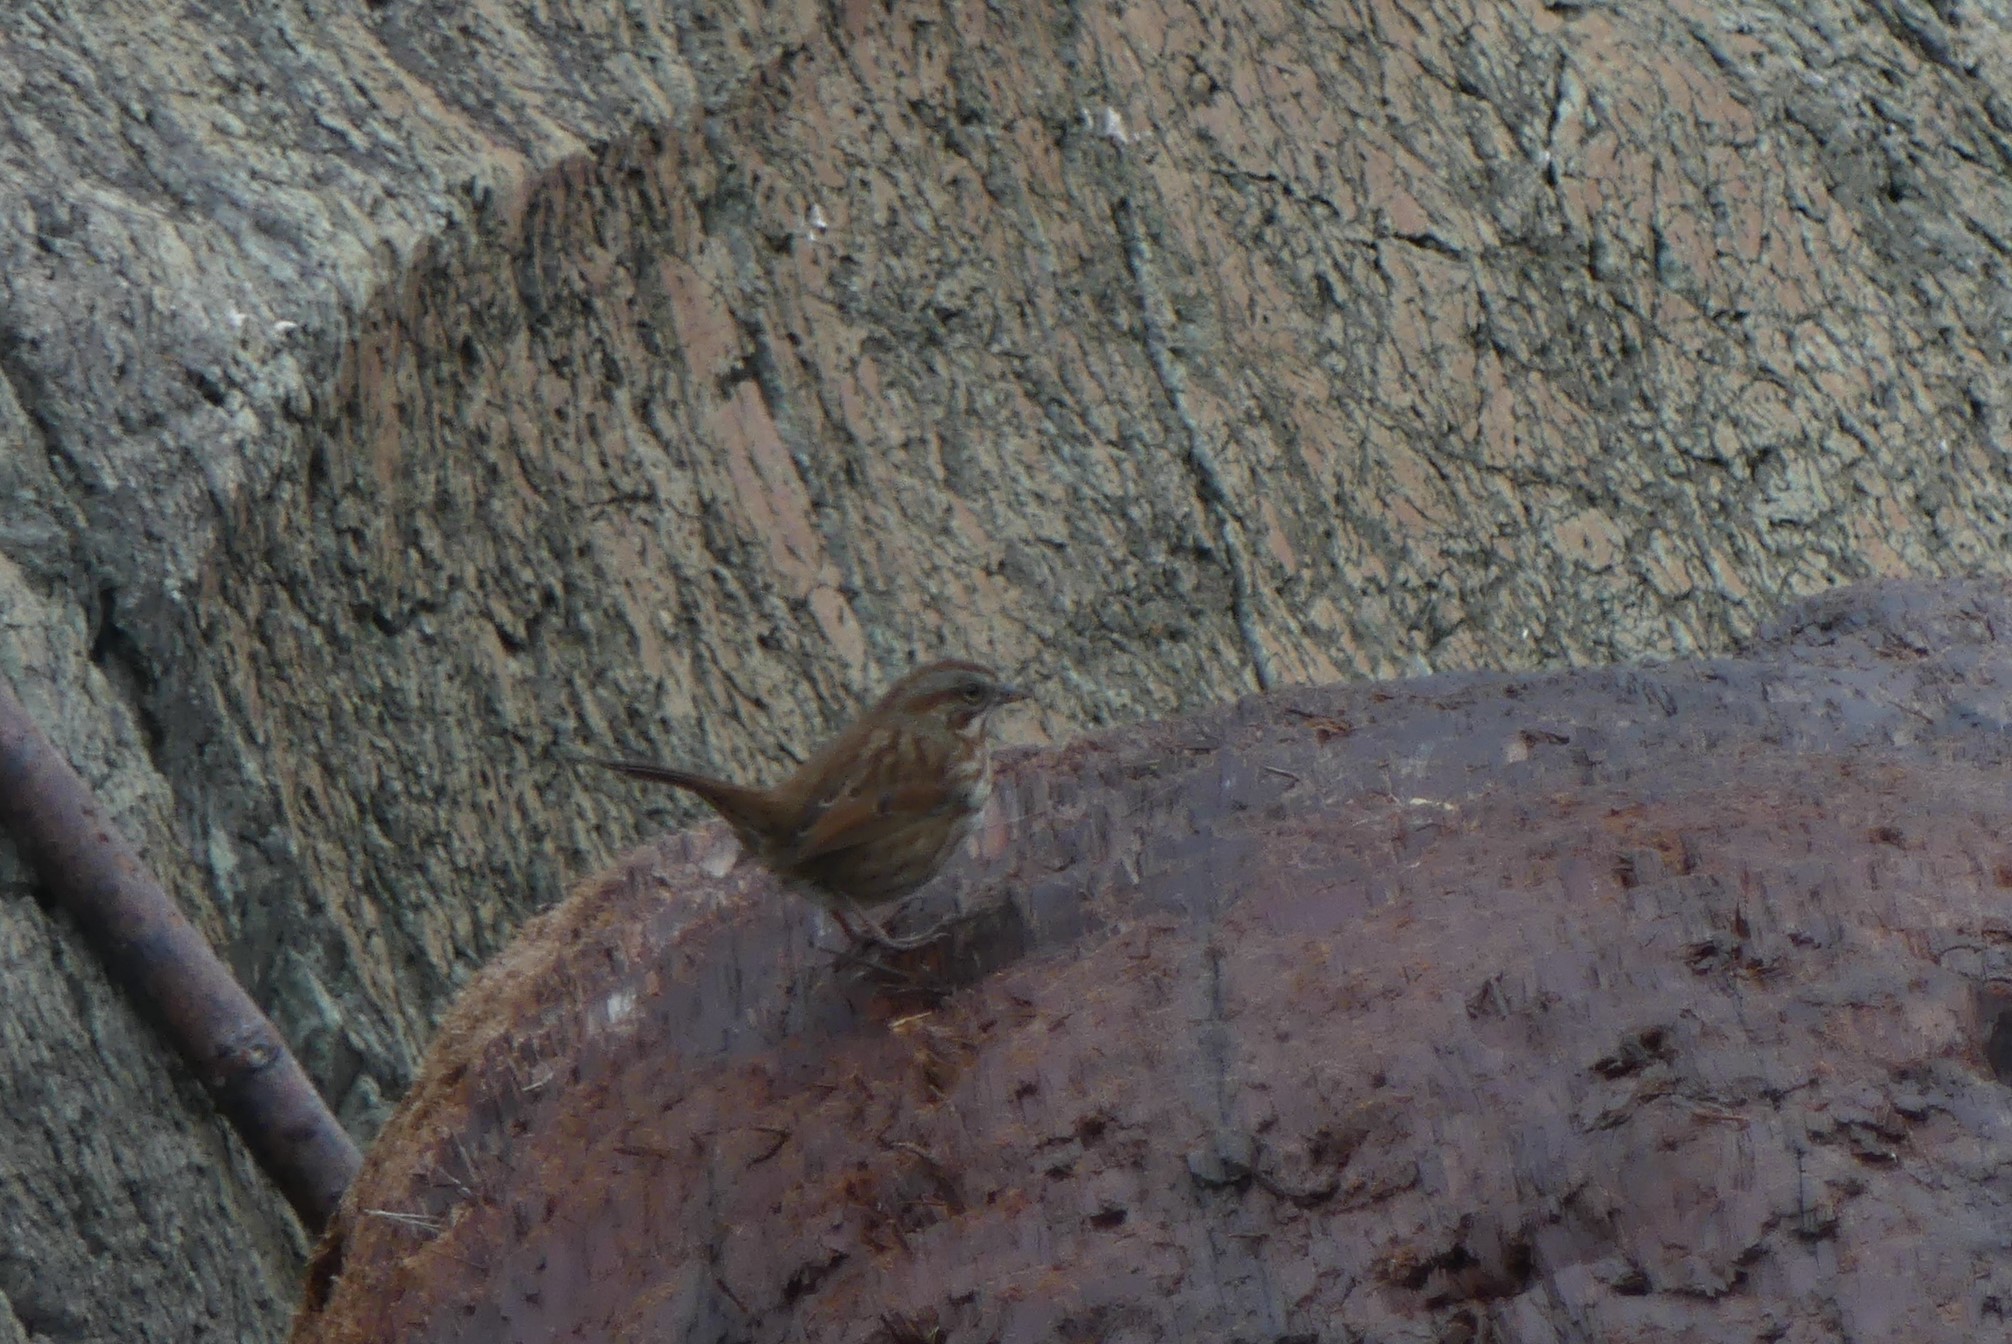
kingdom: Animalia
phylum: Chordata
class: Aves
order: Passeriformes
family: Passerellidae
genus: Melospiza
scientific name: Melospiza melodia
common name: Song sparrow
